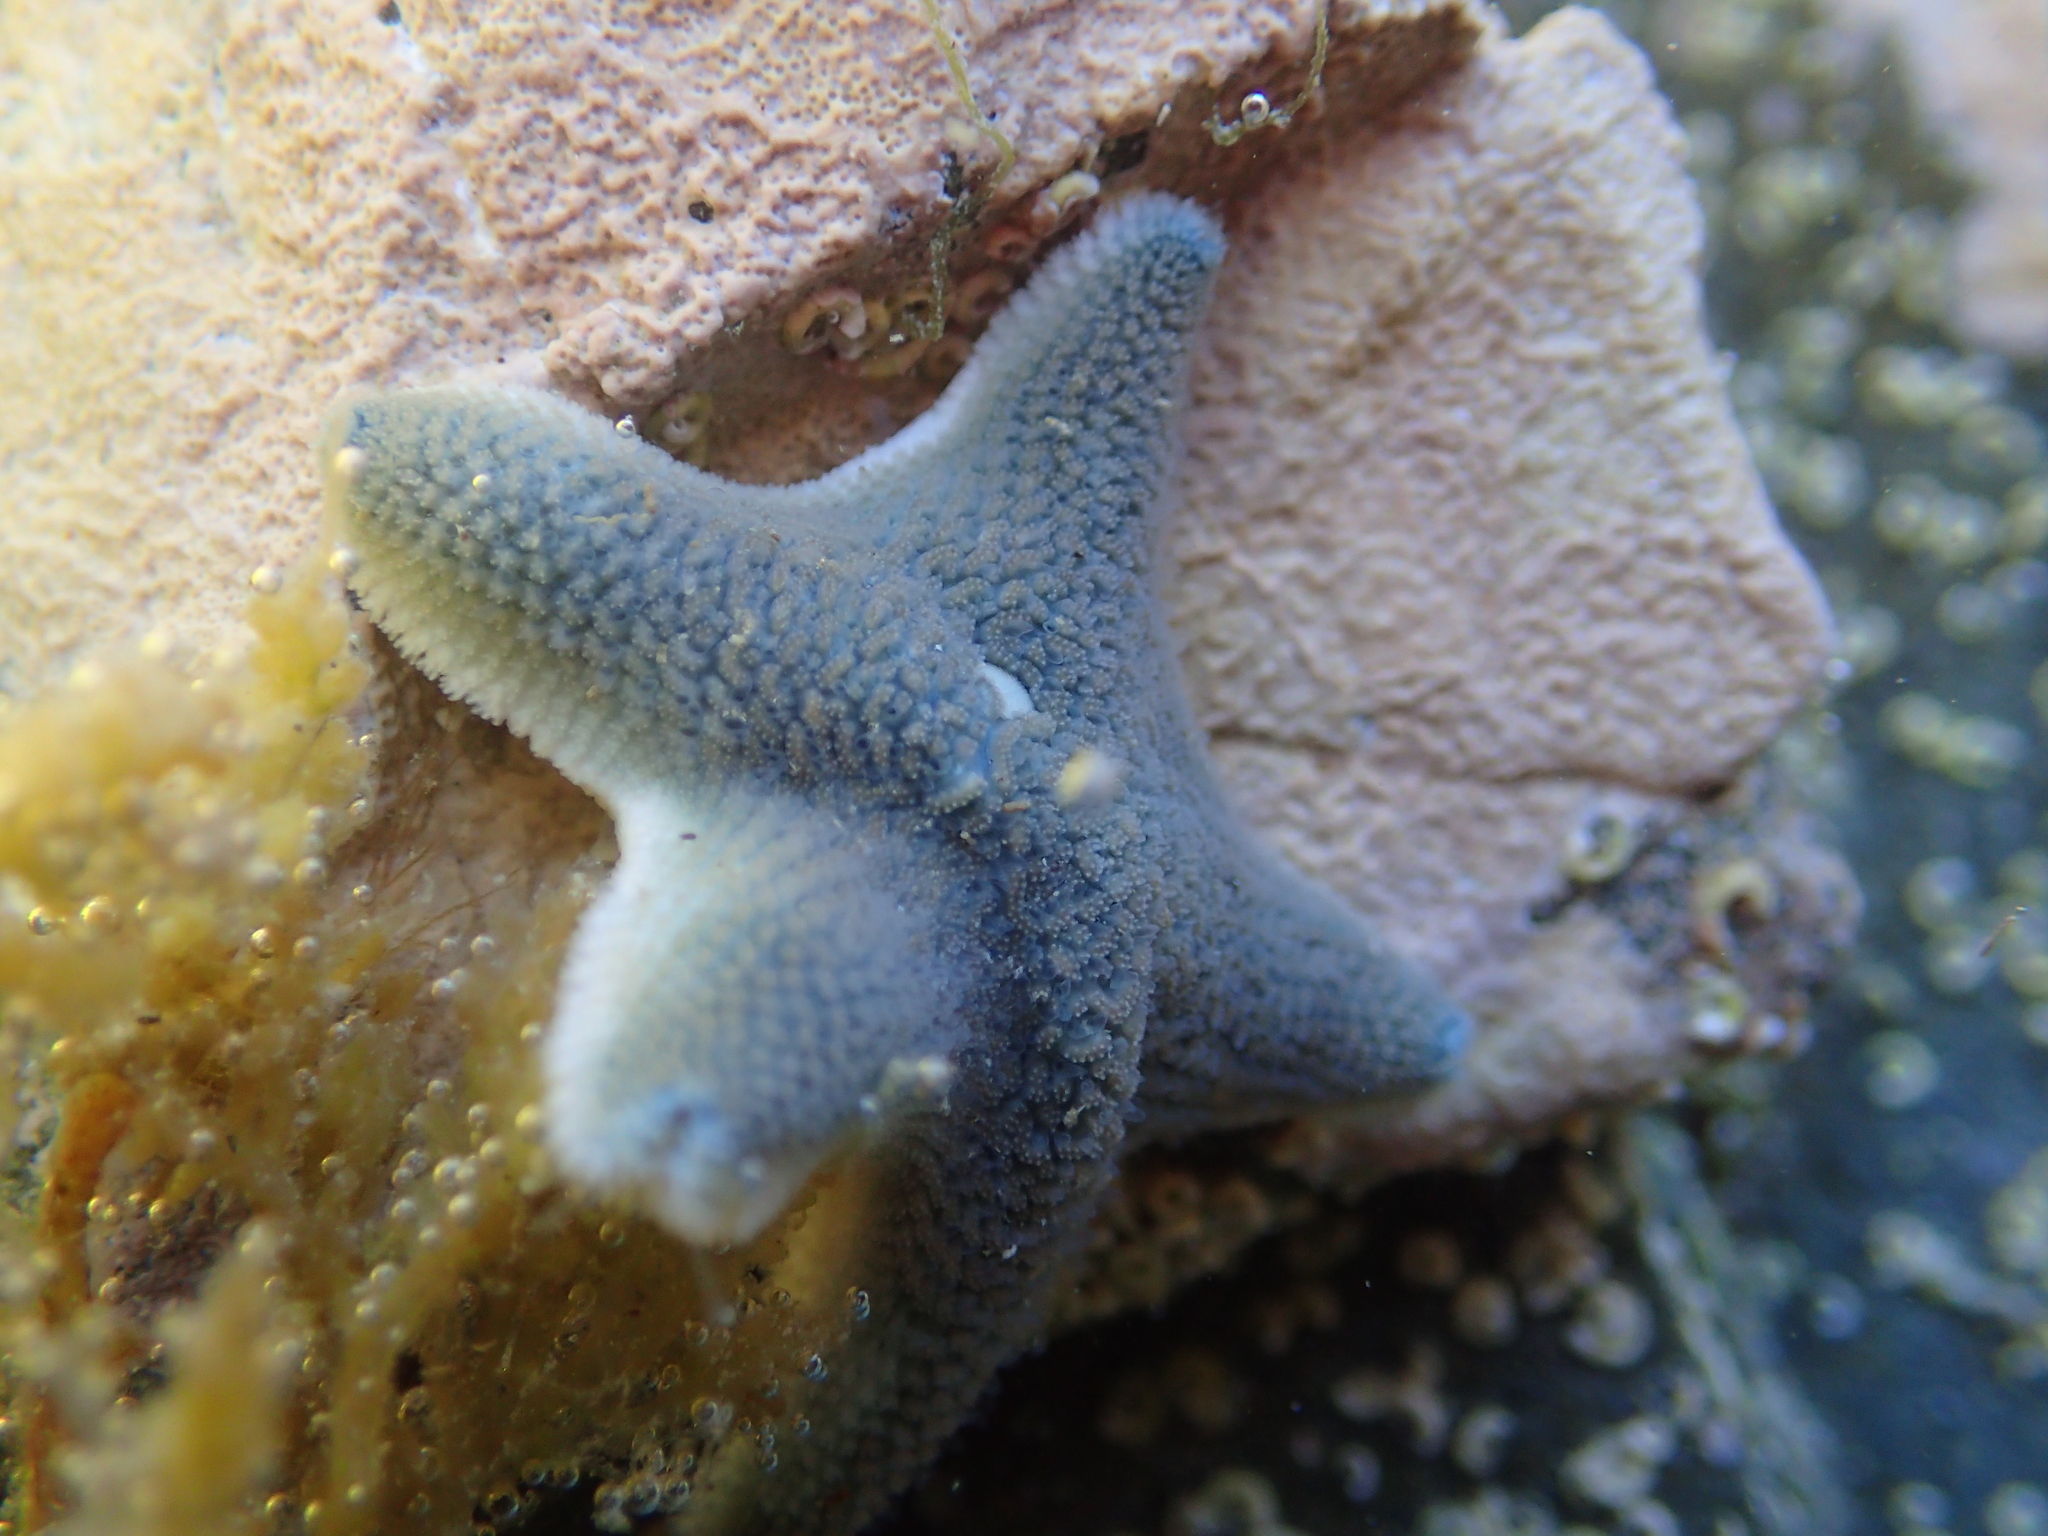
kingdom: Animalia
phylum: Echinodermata
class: Asteroidea
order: Valvatida
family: Asterinidae
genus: Patiriella
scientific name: Patiriella regularis
